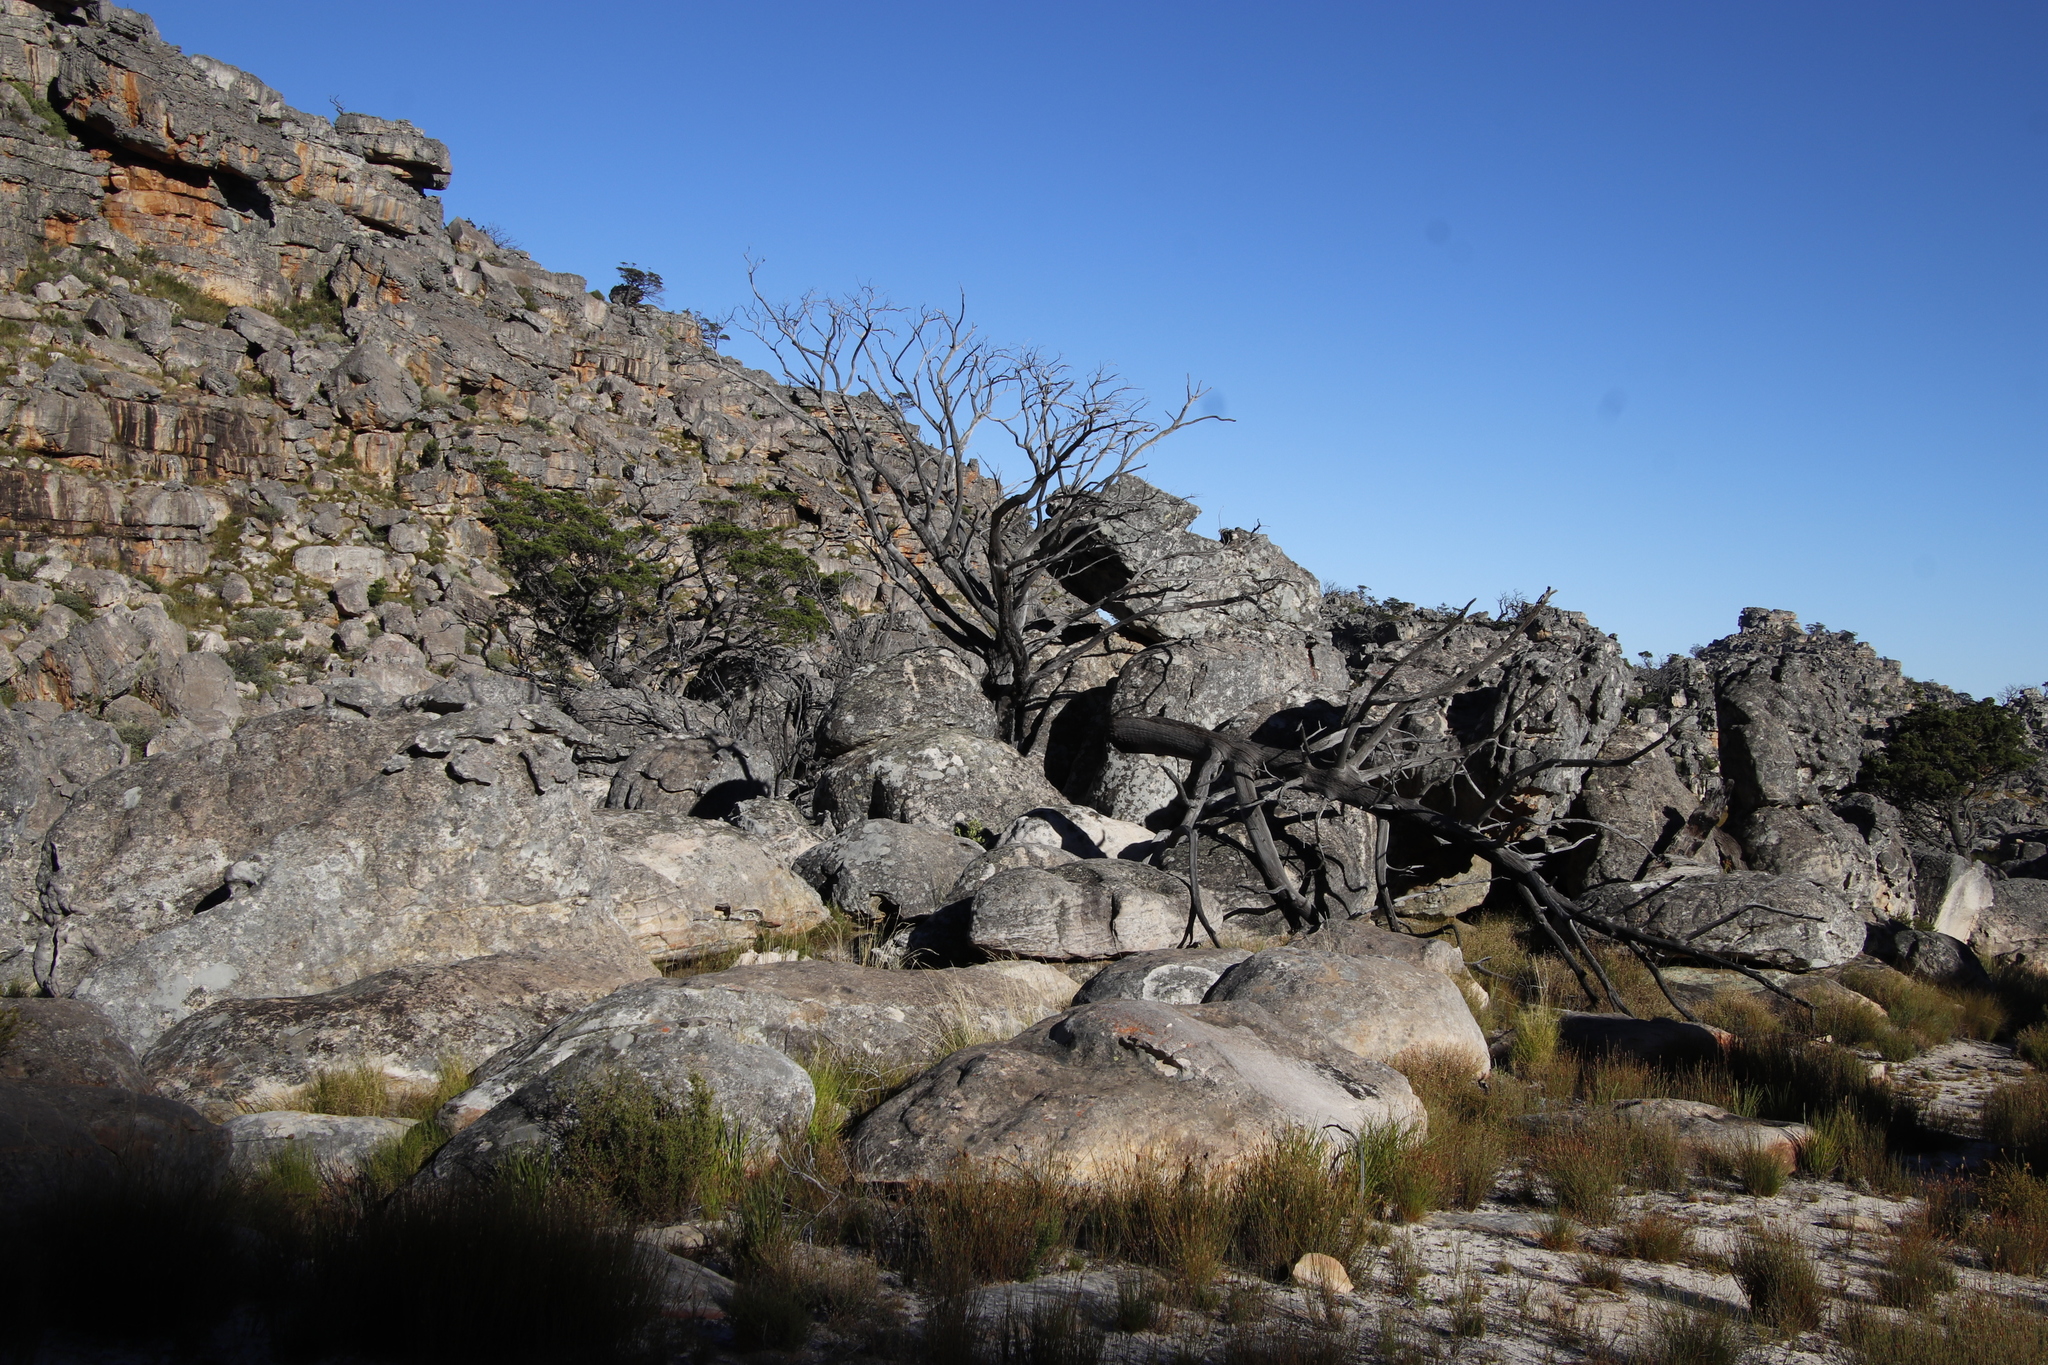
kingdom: Plantae
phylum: Tracheophyta
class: Pinopsida
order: Pinales
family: Cupressaceae
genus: Widdringtonia
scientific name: Widdringtonia nodiflora
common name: Cape cypress
